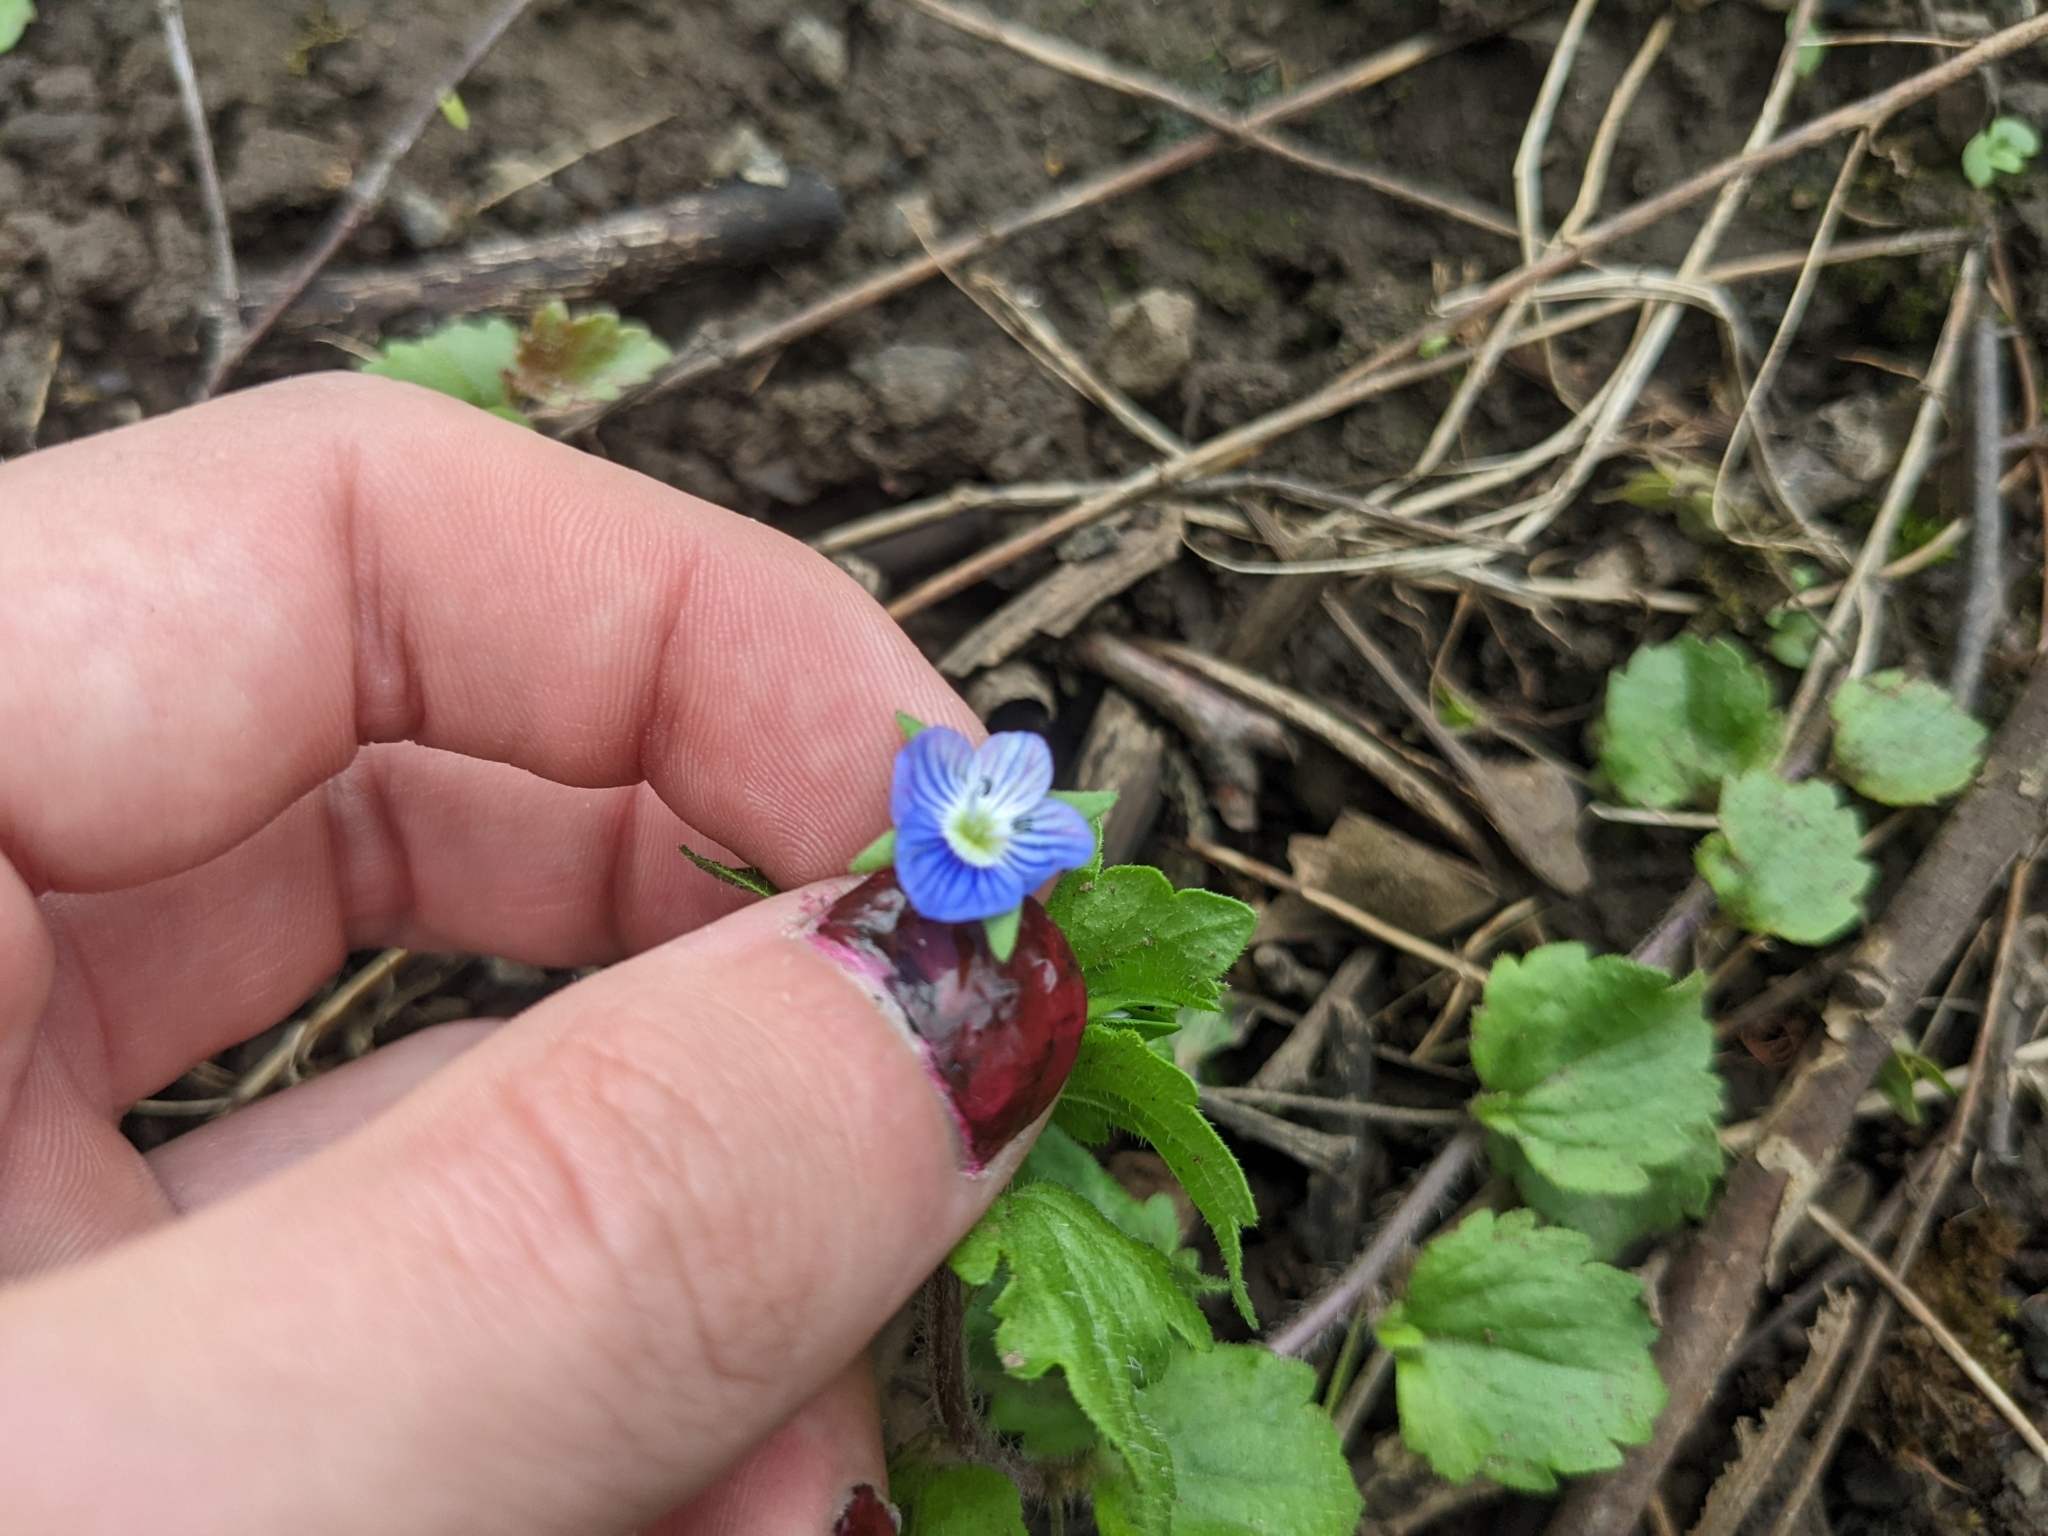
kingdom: Plantae
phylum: Tracheophyta
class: Magnoliopsida
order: Lamiales
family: Plantaginaceae
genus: Veronica
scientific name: Veronica persica
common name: Common field-speedwell
